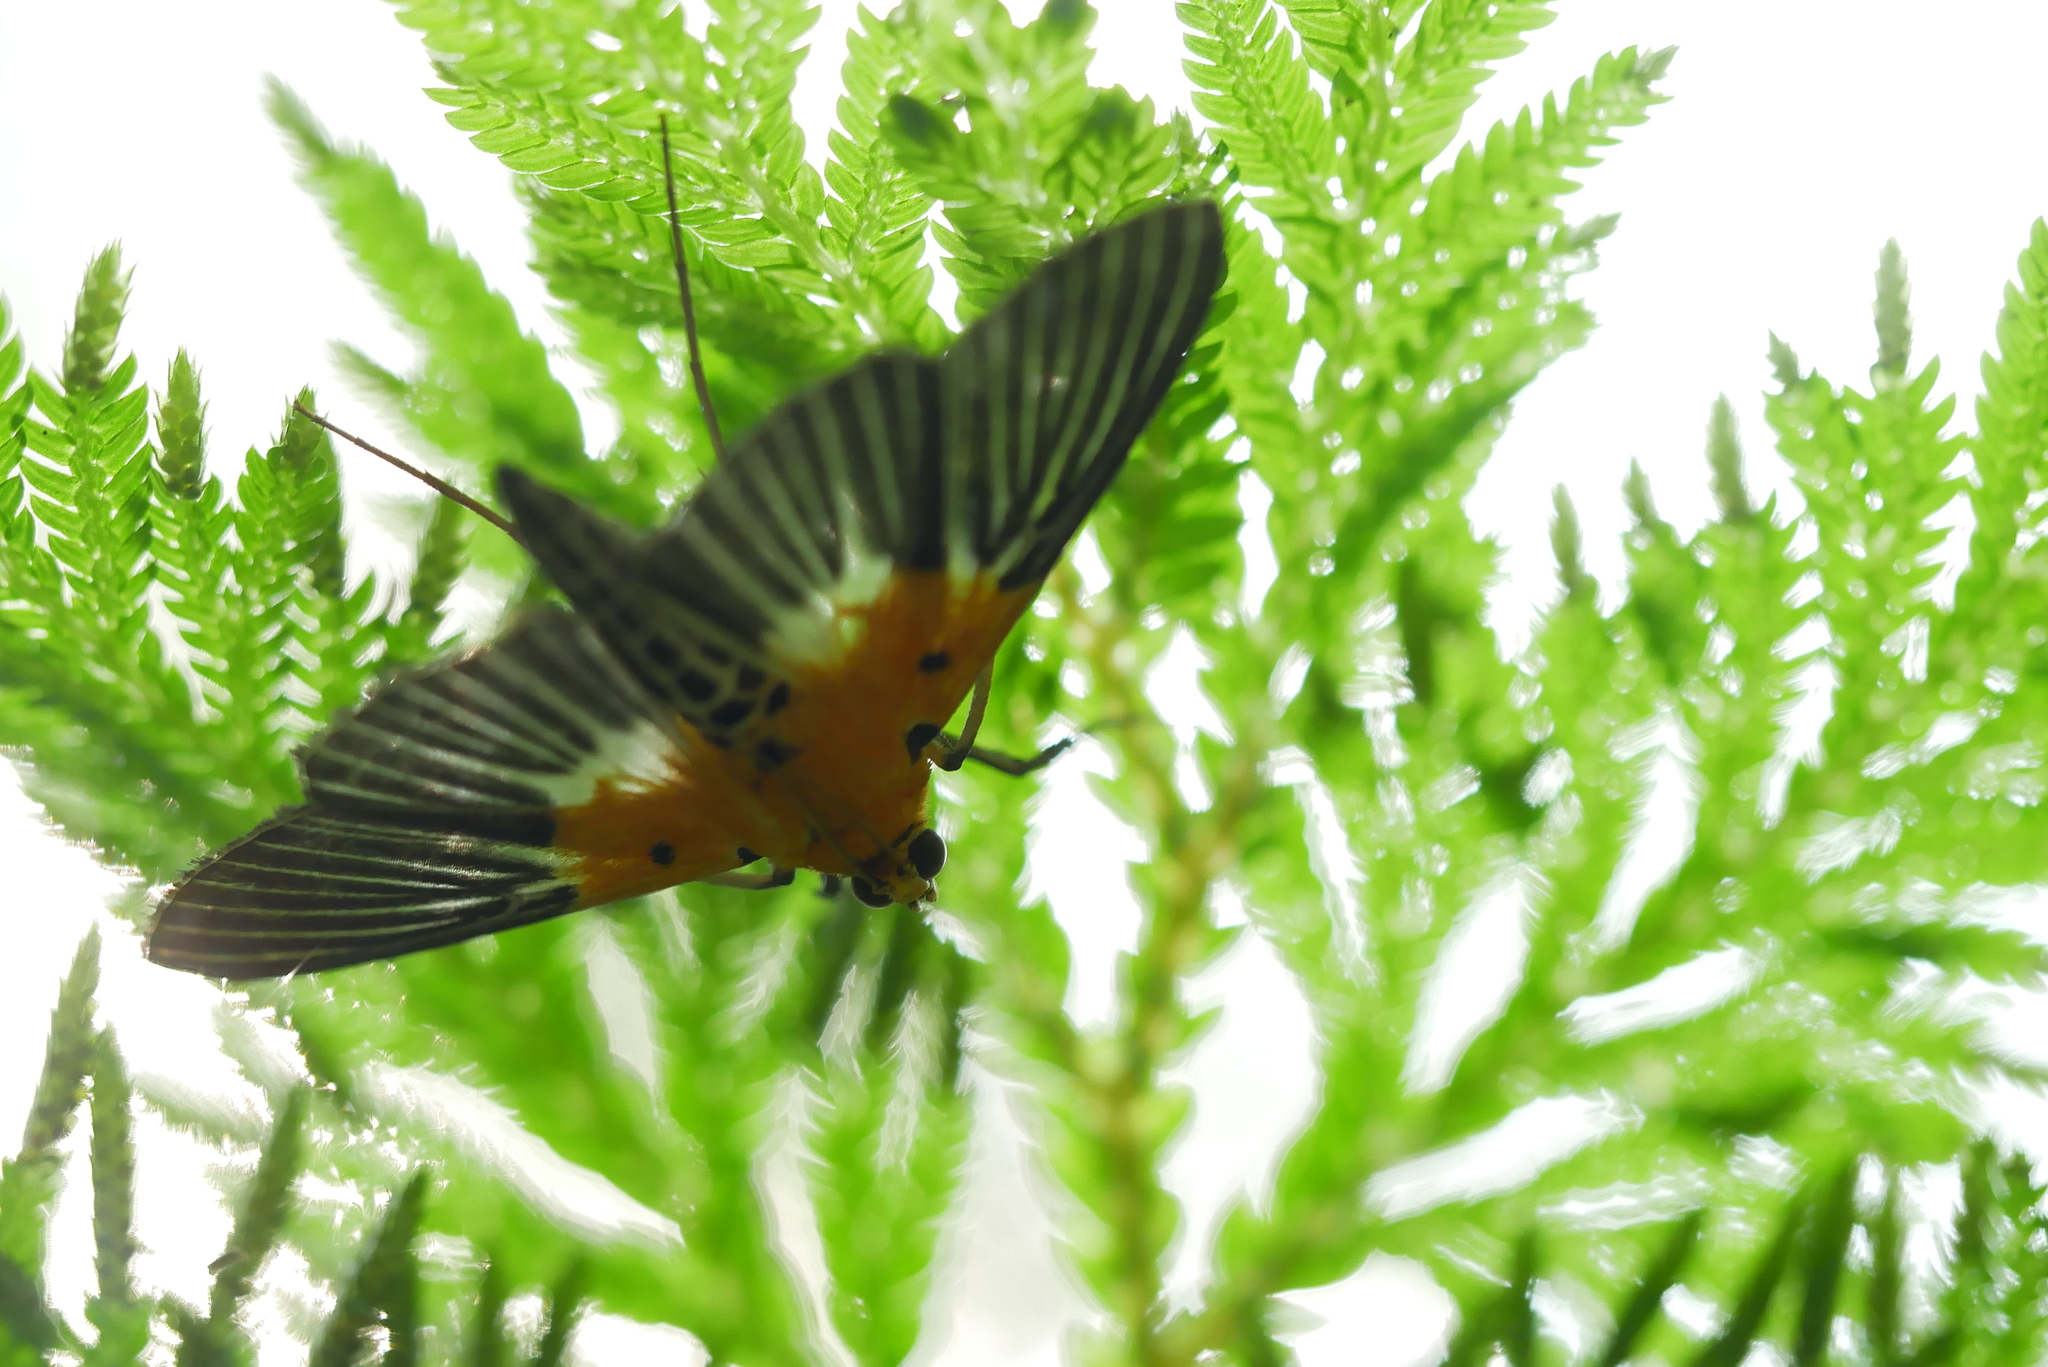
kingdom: Animalia
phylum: Arthropoda
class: Insecta
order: Lepidoptera
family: Crambidae
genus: Nevrina
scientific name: Nevrina procopia
